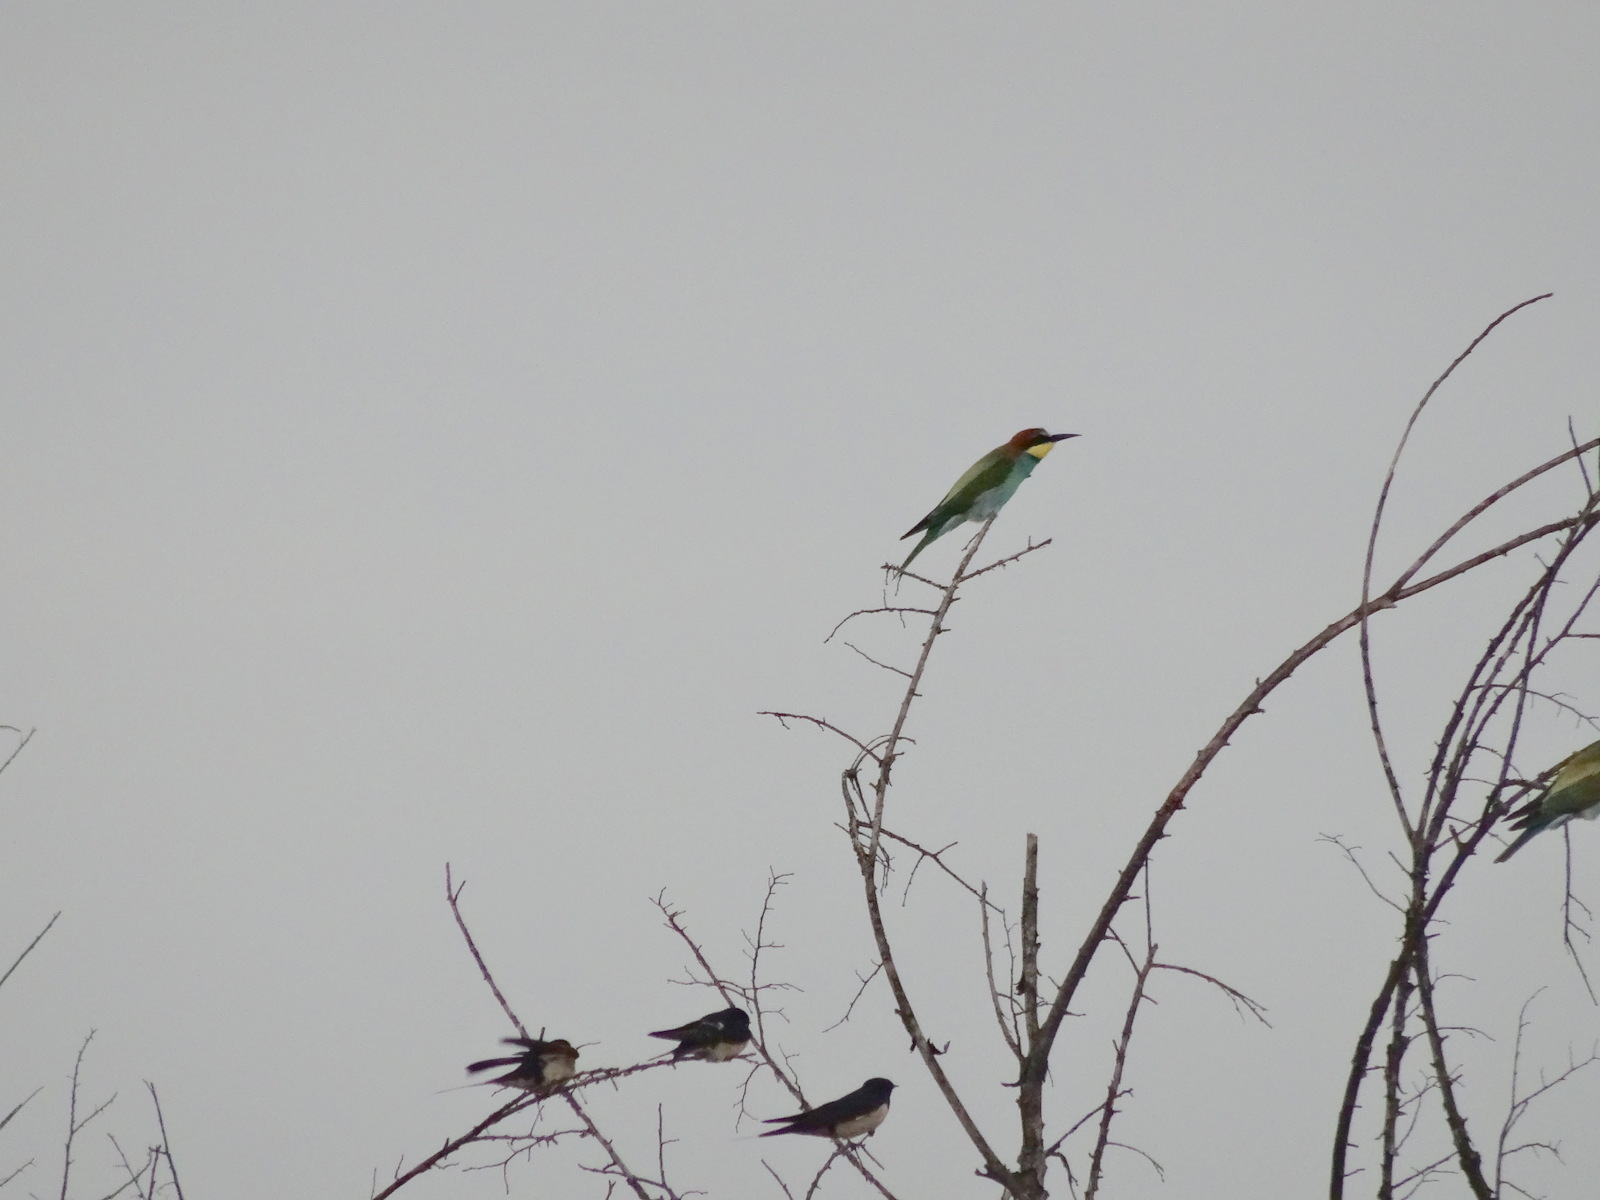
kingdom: Animalia
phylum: Chordata
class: Aves
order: Coraciiformes
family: Meropidae
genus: Merops
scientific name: Merops apiaster
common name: European bee-eater
